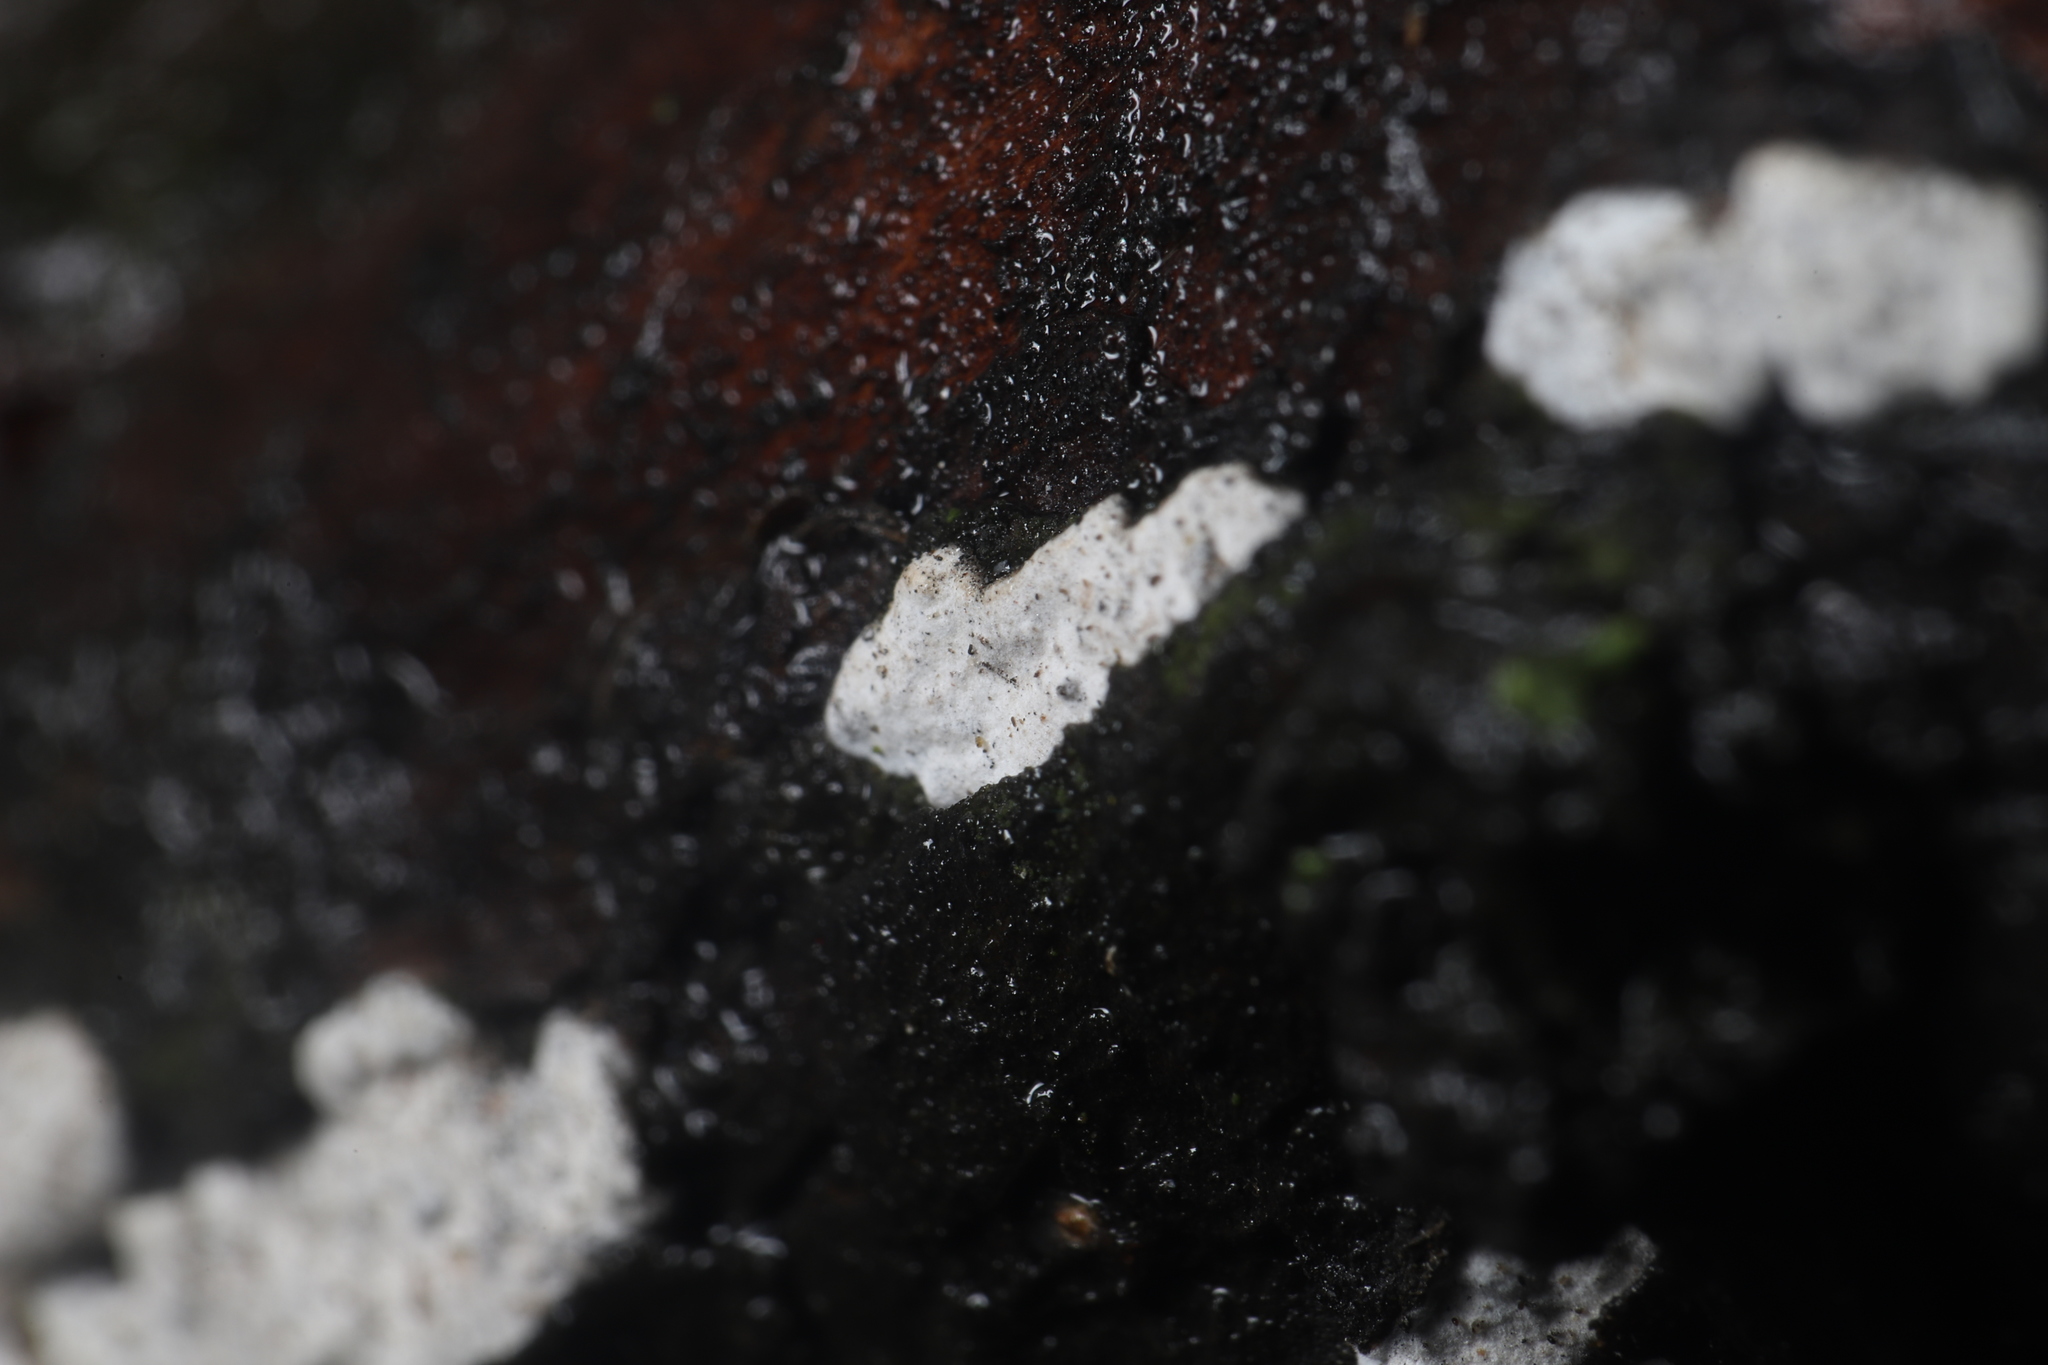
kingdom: Fungi
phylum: Basidiomycota
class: Agaricomycetes
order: Agaricales
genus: Dendrothele
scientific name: Dendrothele nivosa
